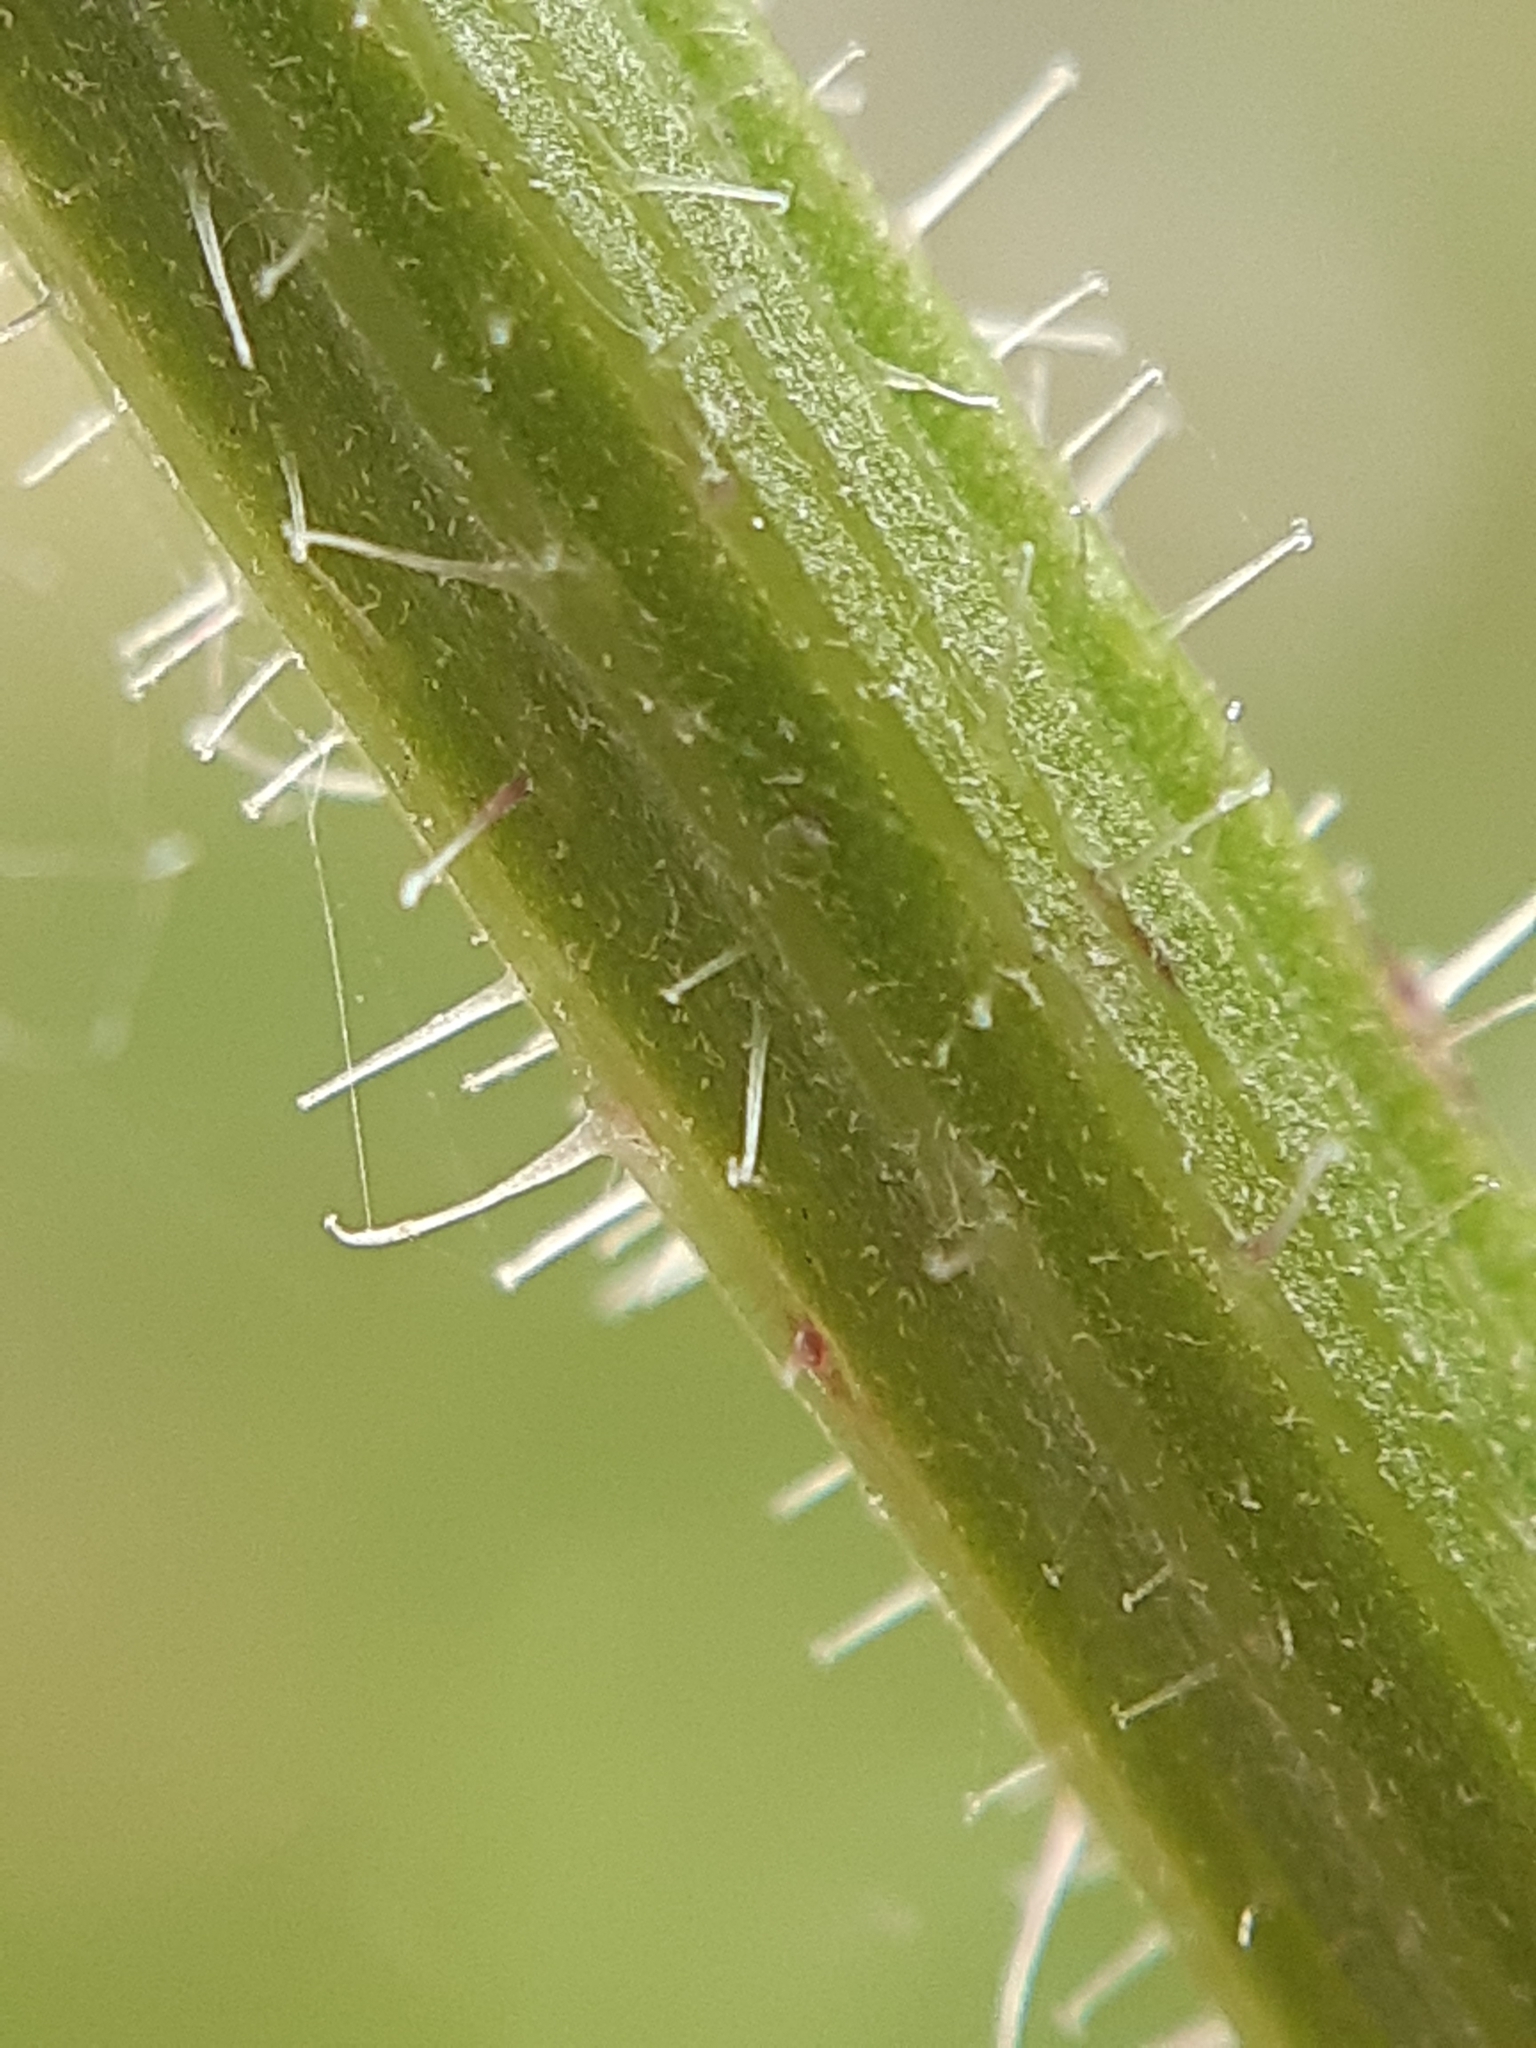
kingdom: Plantae
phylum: Tracheophyta
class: Magnoliopsida
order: Asterales
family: Asteraceae
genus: Picris
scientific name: Picris hieracioides
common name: Hawkweed oxtongue
